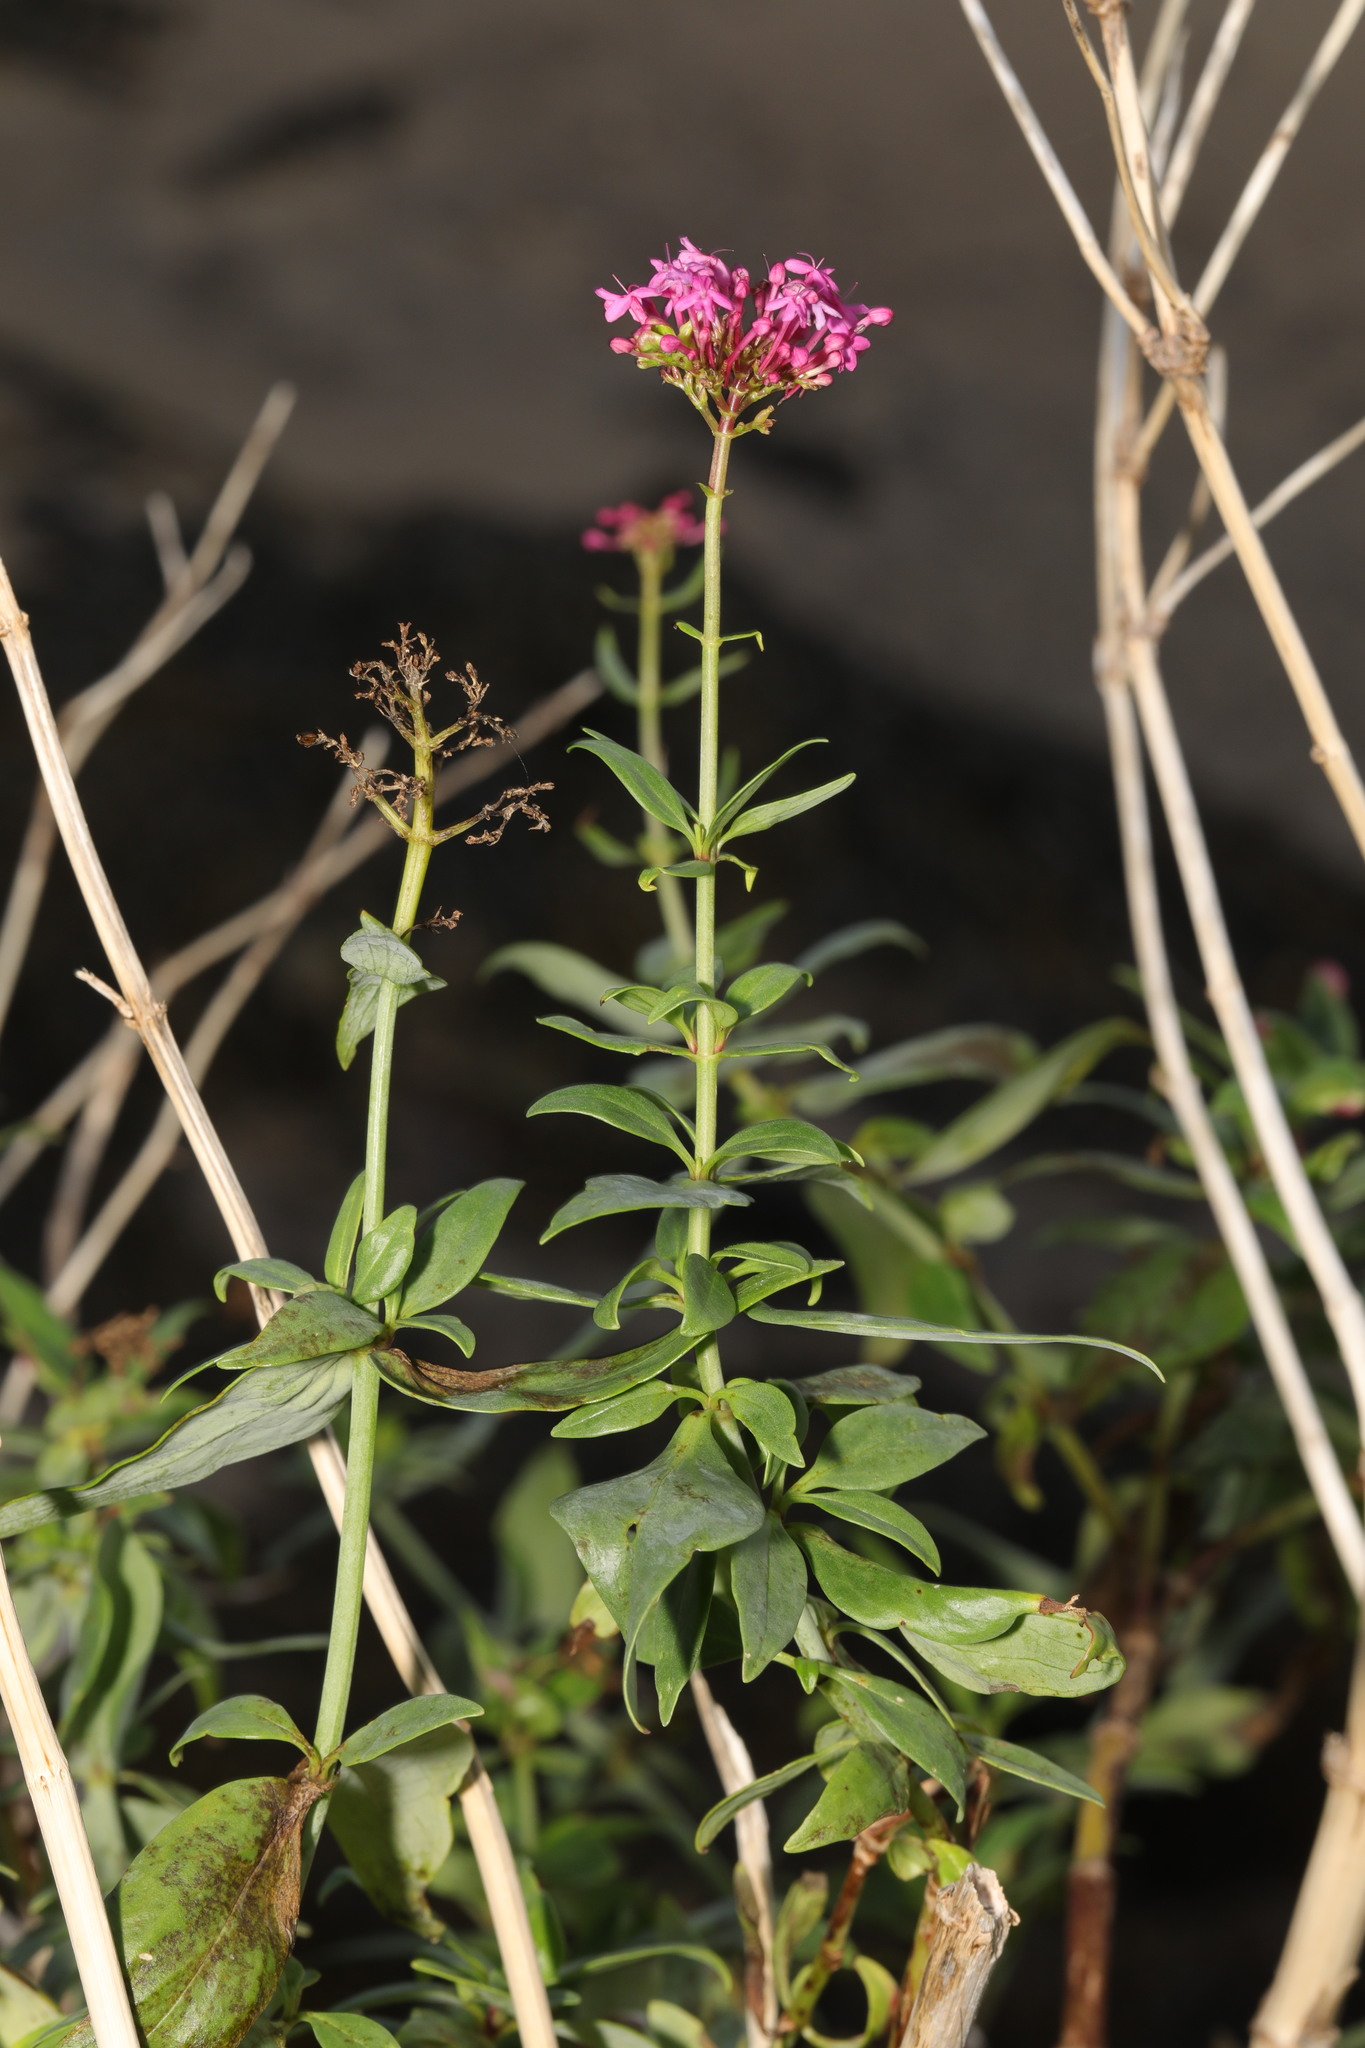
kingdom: Plantae
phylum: Tracheophyta
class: Magnoliopsida
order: Dipsacales
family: Caprifoliaceae
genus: Centranthus
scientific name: Centranthus ruber
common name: Red valerian
